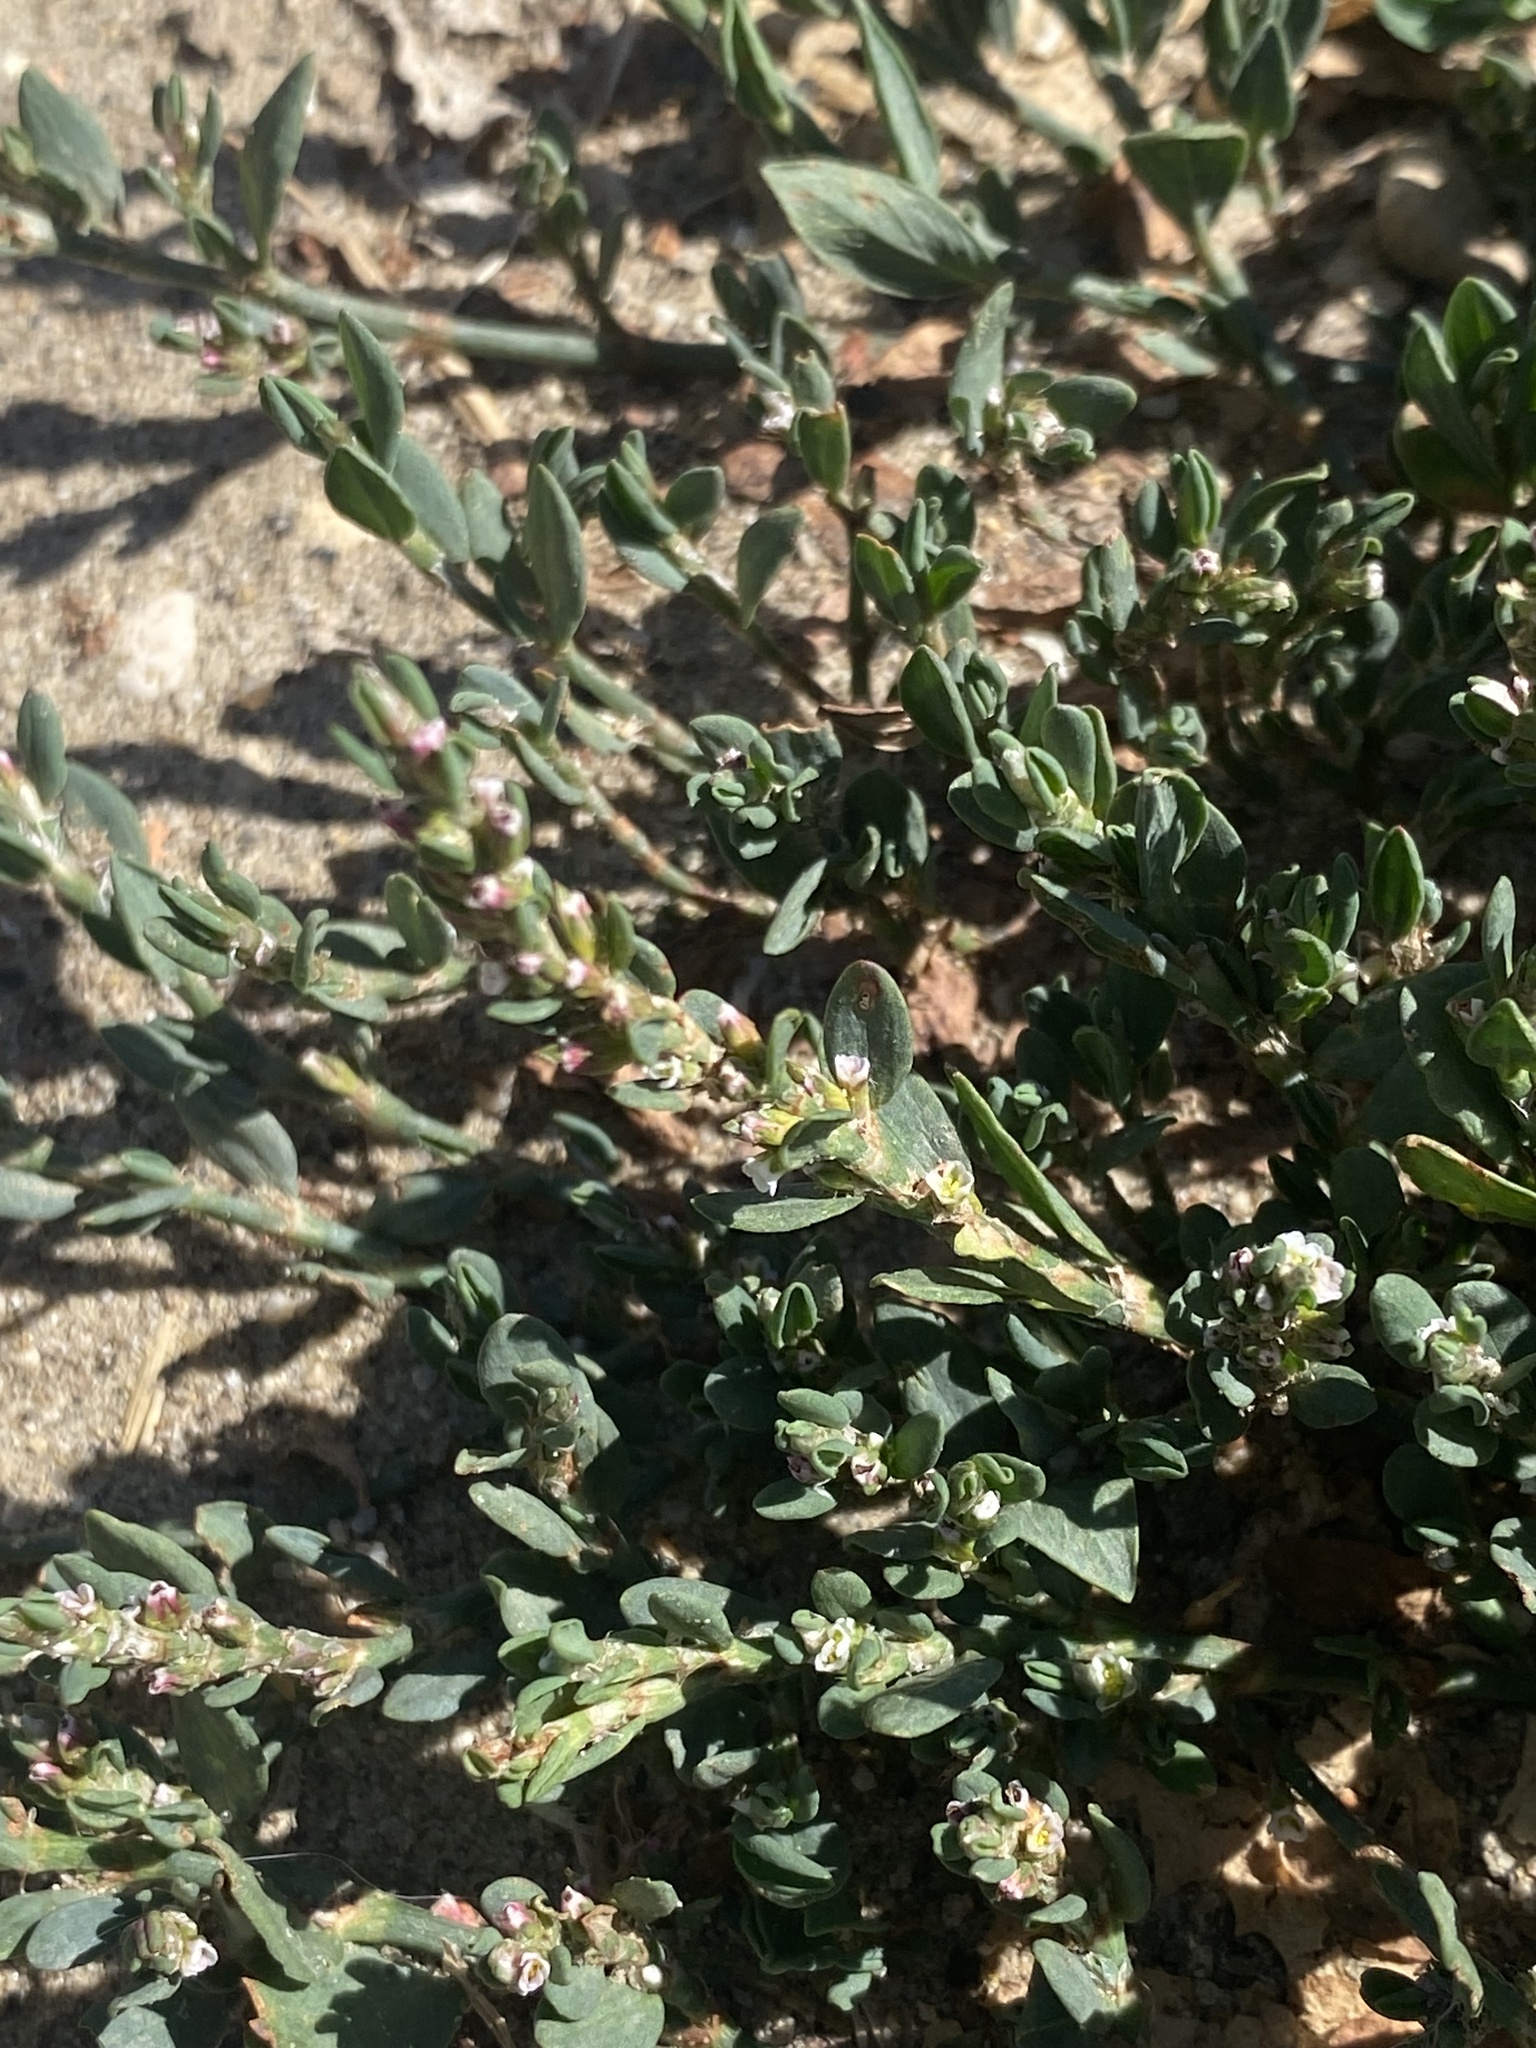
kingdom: Plantae
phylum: Tracheophyta
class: Magnoliopsida
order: Caryophyllales
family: Polygonaceae
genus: Polygonum
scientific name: Polygonum arenastrum
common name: Equal-leaved knotgrass
